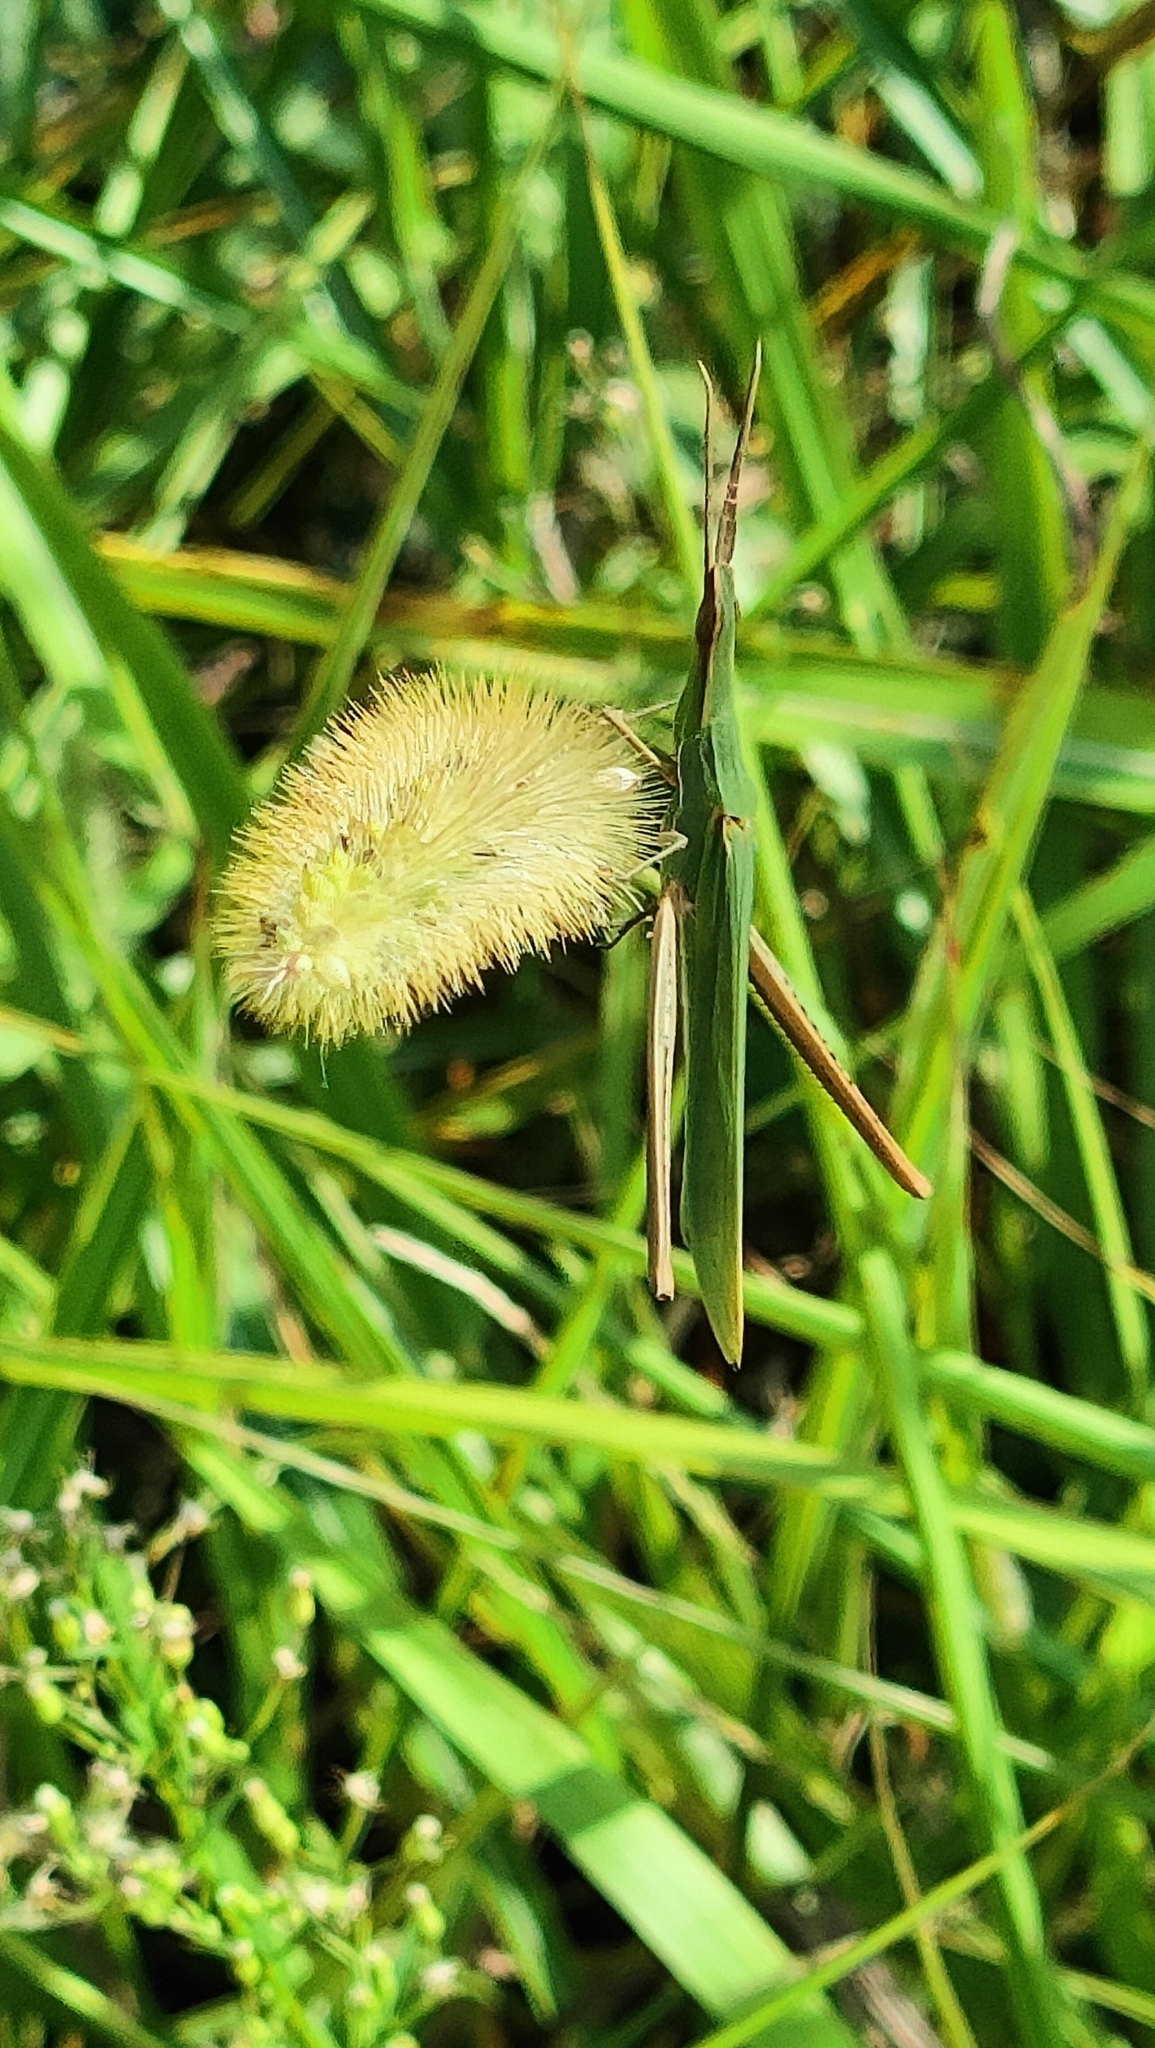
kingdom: Animalia
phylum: Arthropoda
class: Insecta
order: Orthoptera
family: Acrididae
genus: Acrida
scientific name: Acrida ungarica
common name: Common cone-headed grasshopper
